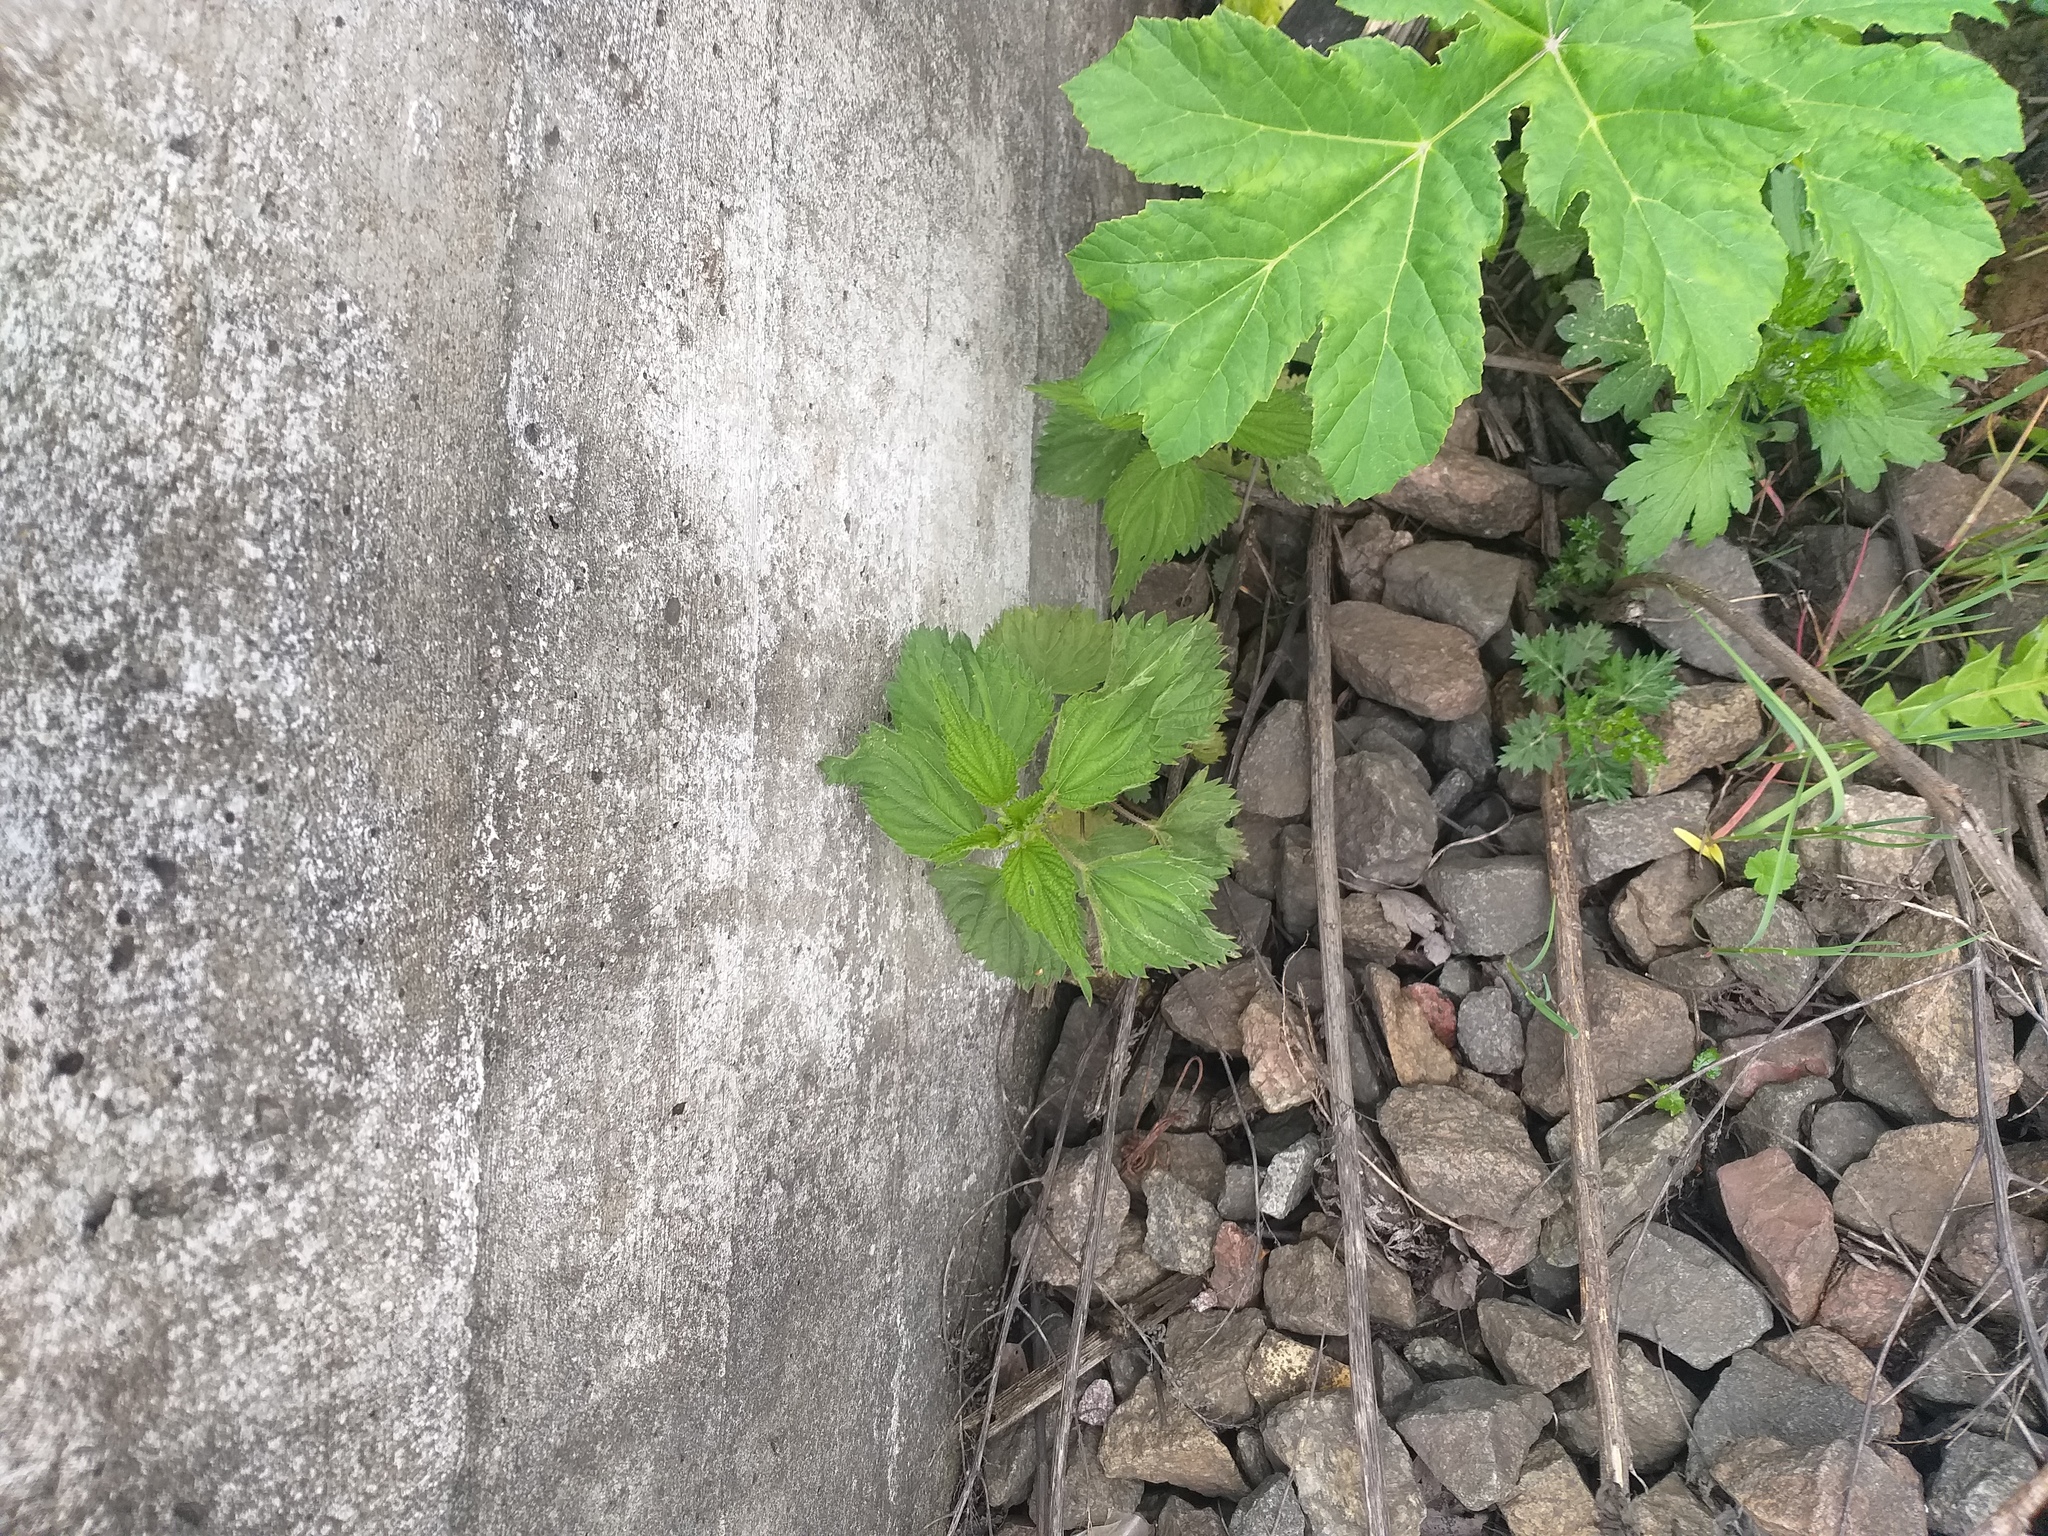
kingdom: Plantae
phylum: Tracheophyta
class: Magnoliopsida
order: Rosales
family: Urticaceae
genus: Urtica
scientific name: Urtica dioica
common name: Common nettle
